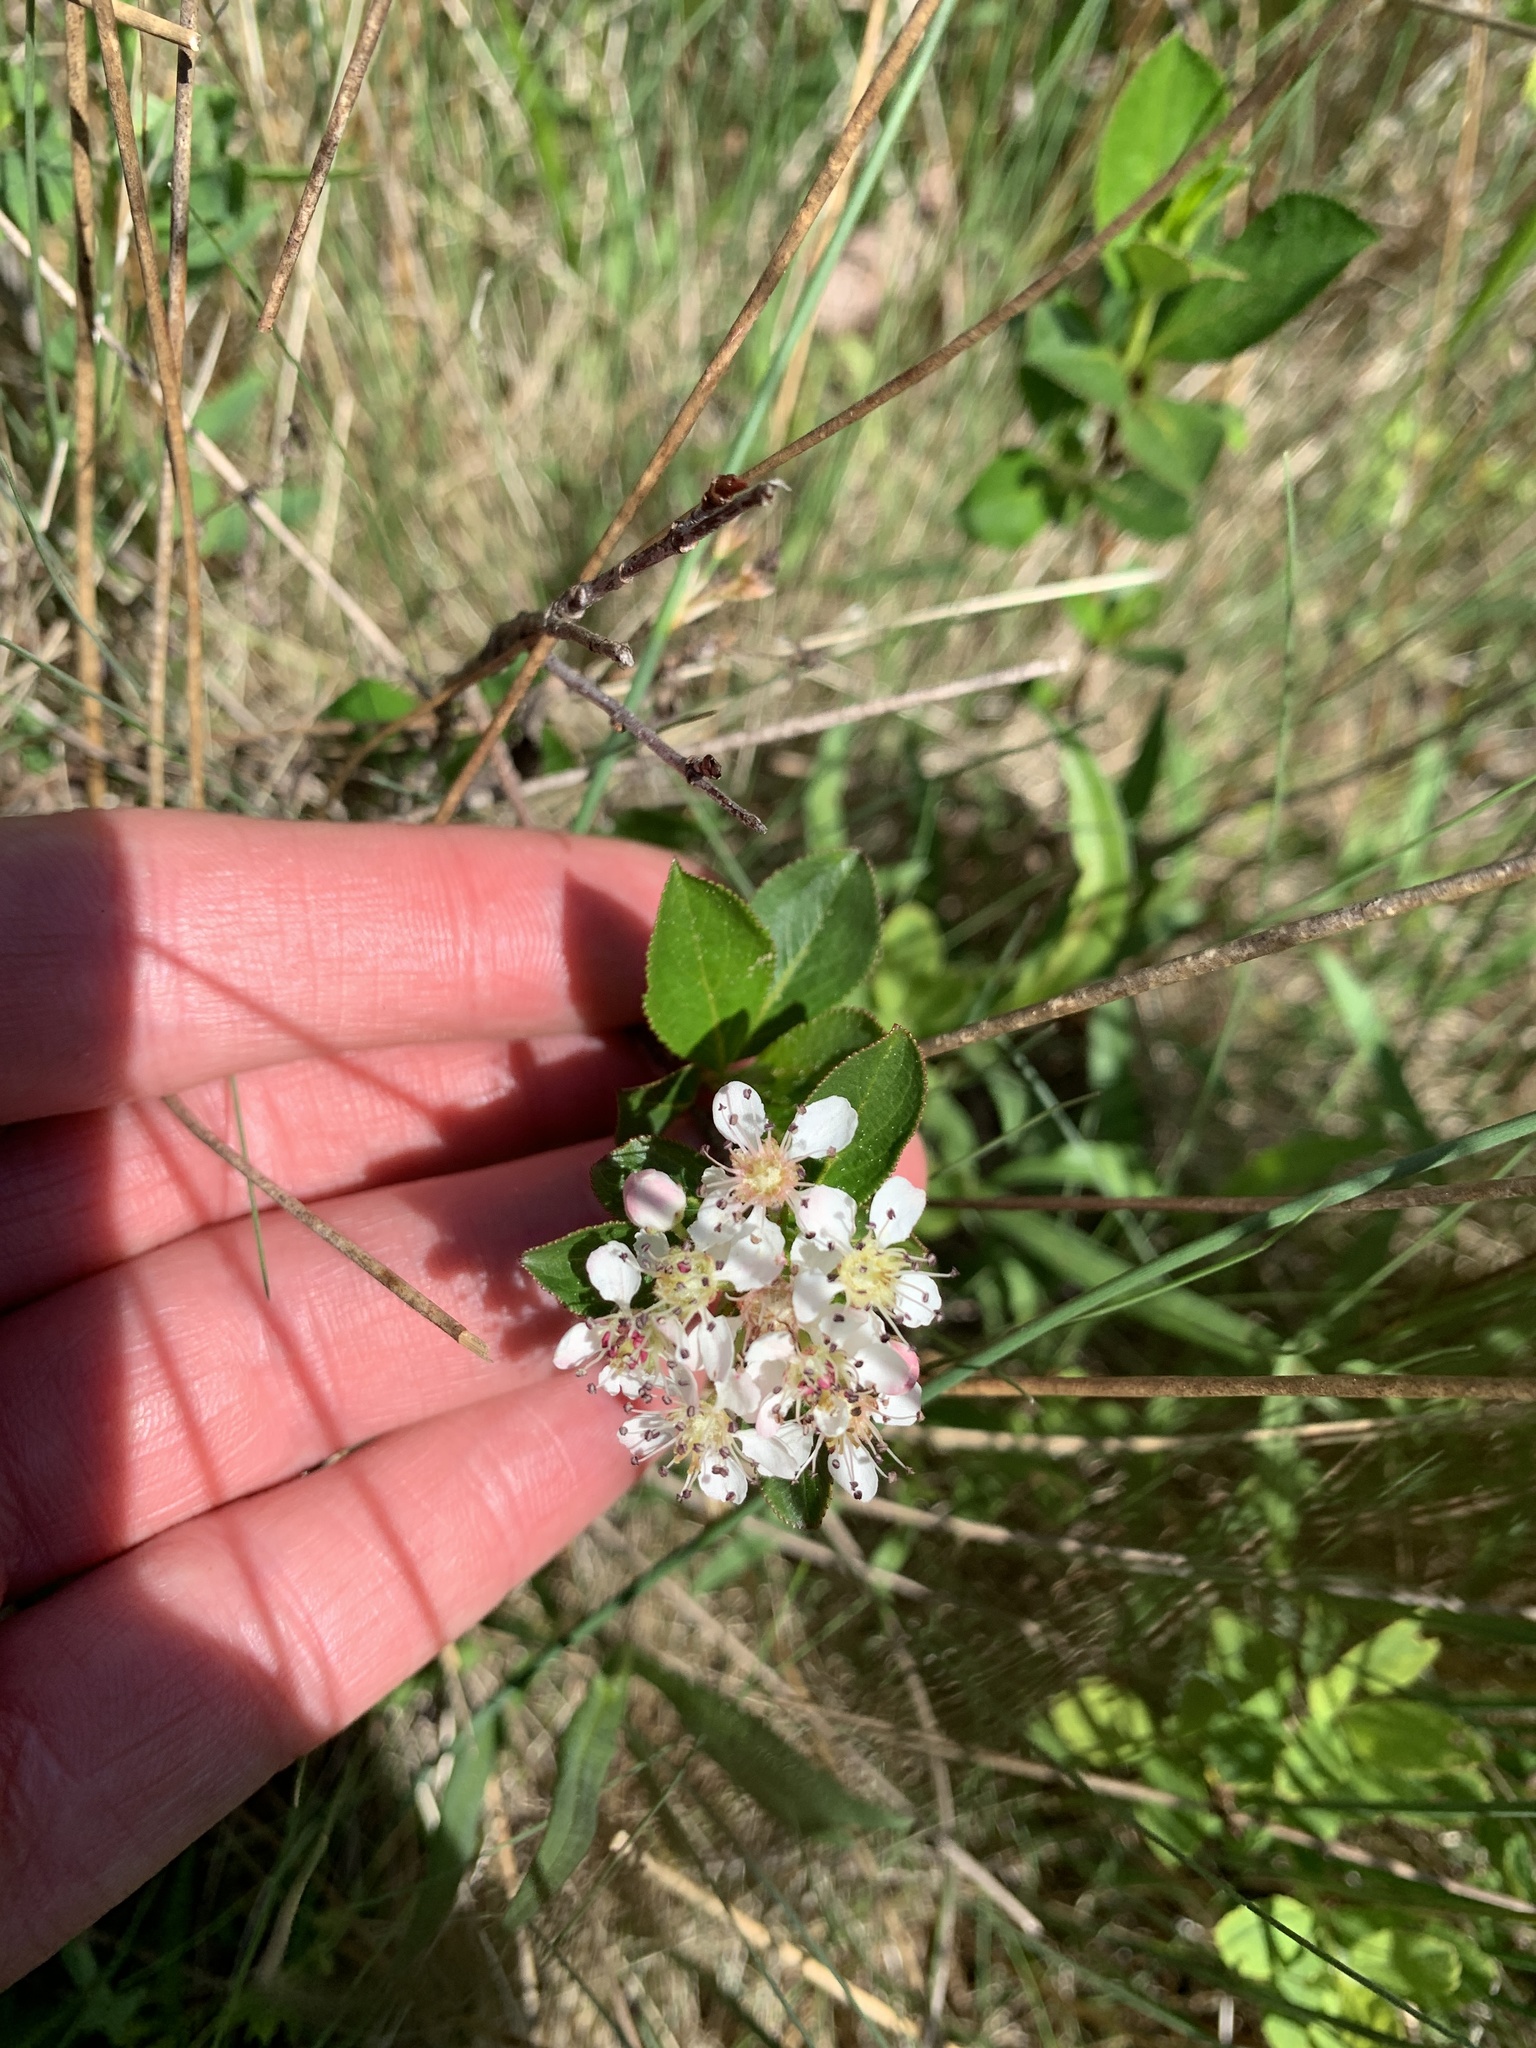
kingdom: Plantae
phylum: Tracheophyta
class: Magnoliopsida
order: Rosales
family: Rosaceae
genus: Aronia
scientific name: Aronia melanocarpa
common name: Black chokeberry
